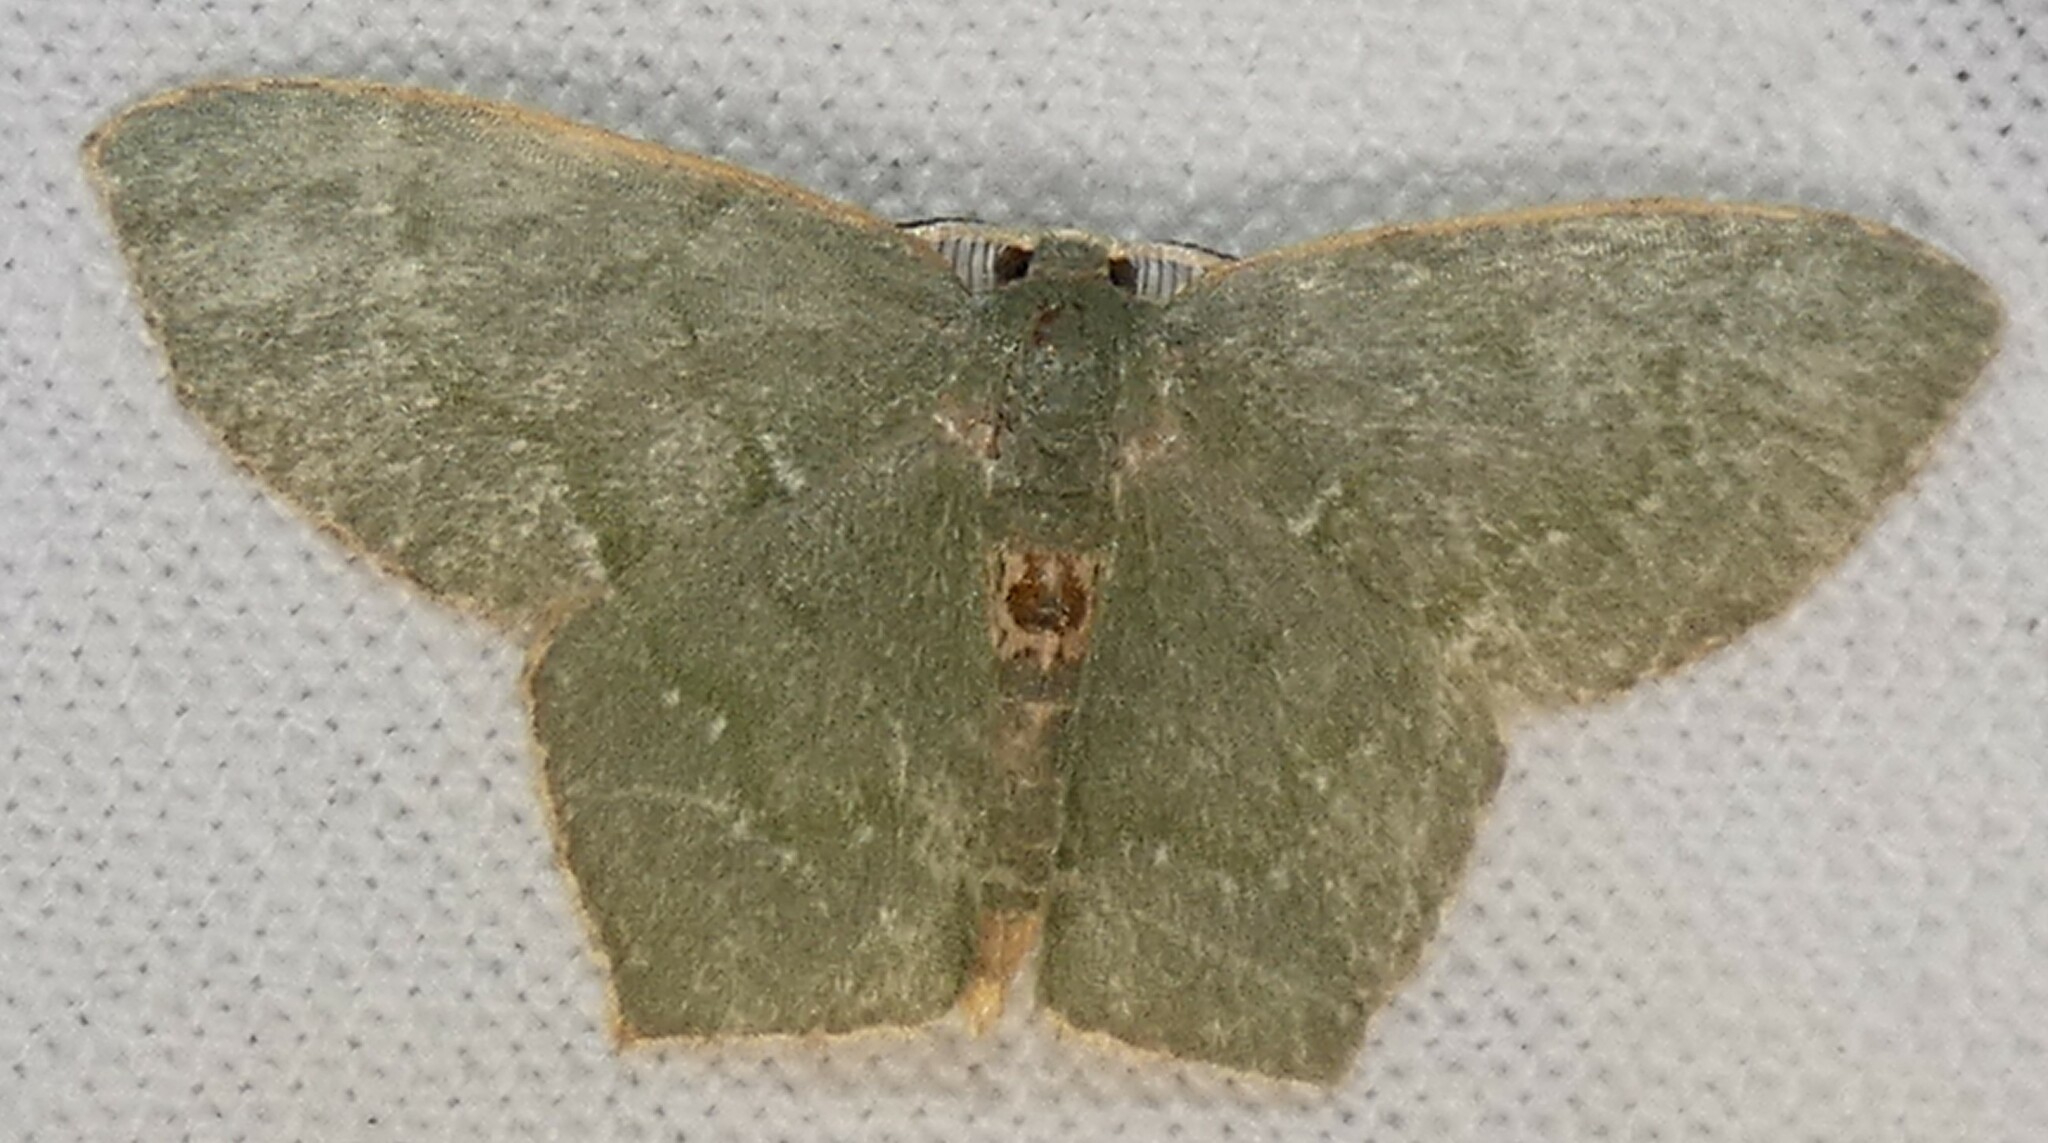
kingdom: Animalia
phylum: Arthropoda
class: Insecta
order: Lepidoptera
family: Geometridae
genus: Chloropteryx
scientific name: Chloropteryx tepperaria
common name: Angle winged emerald moth
